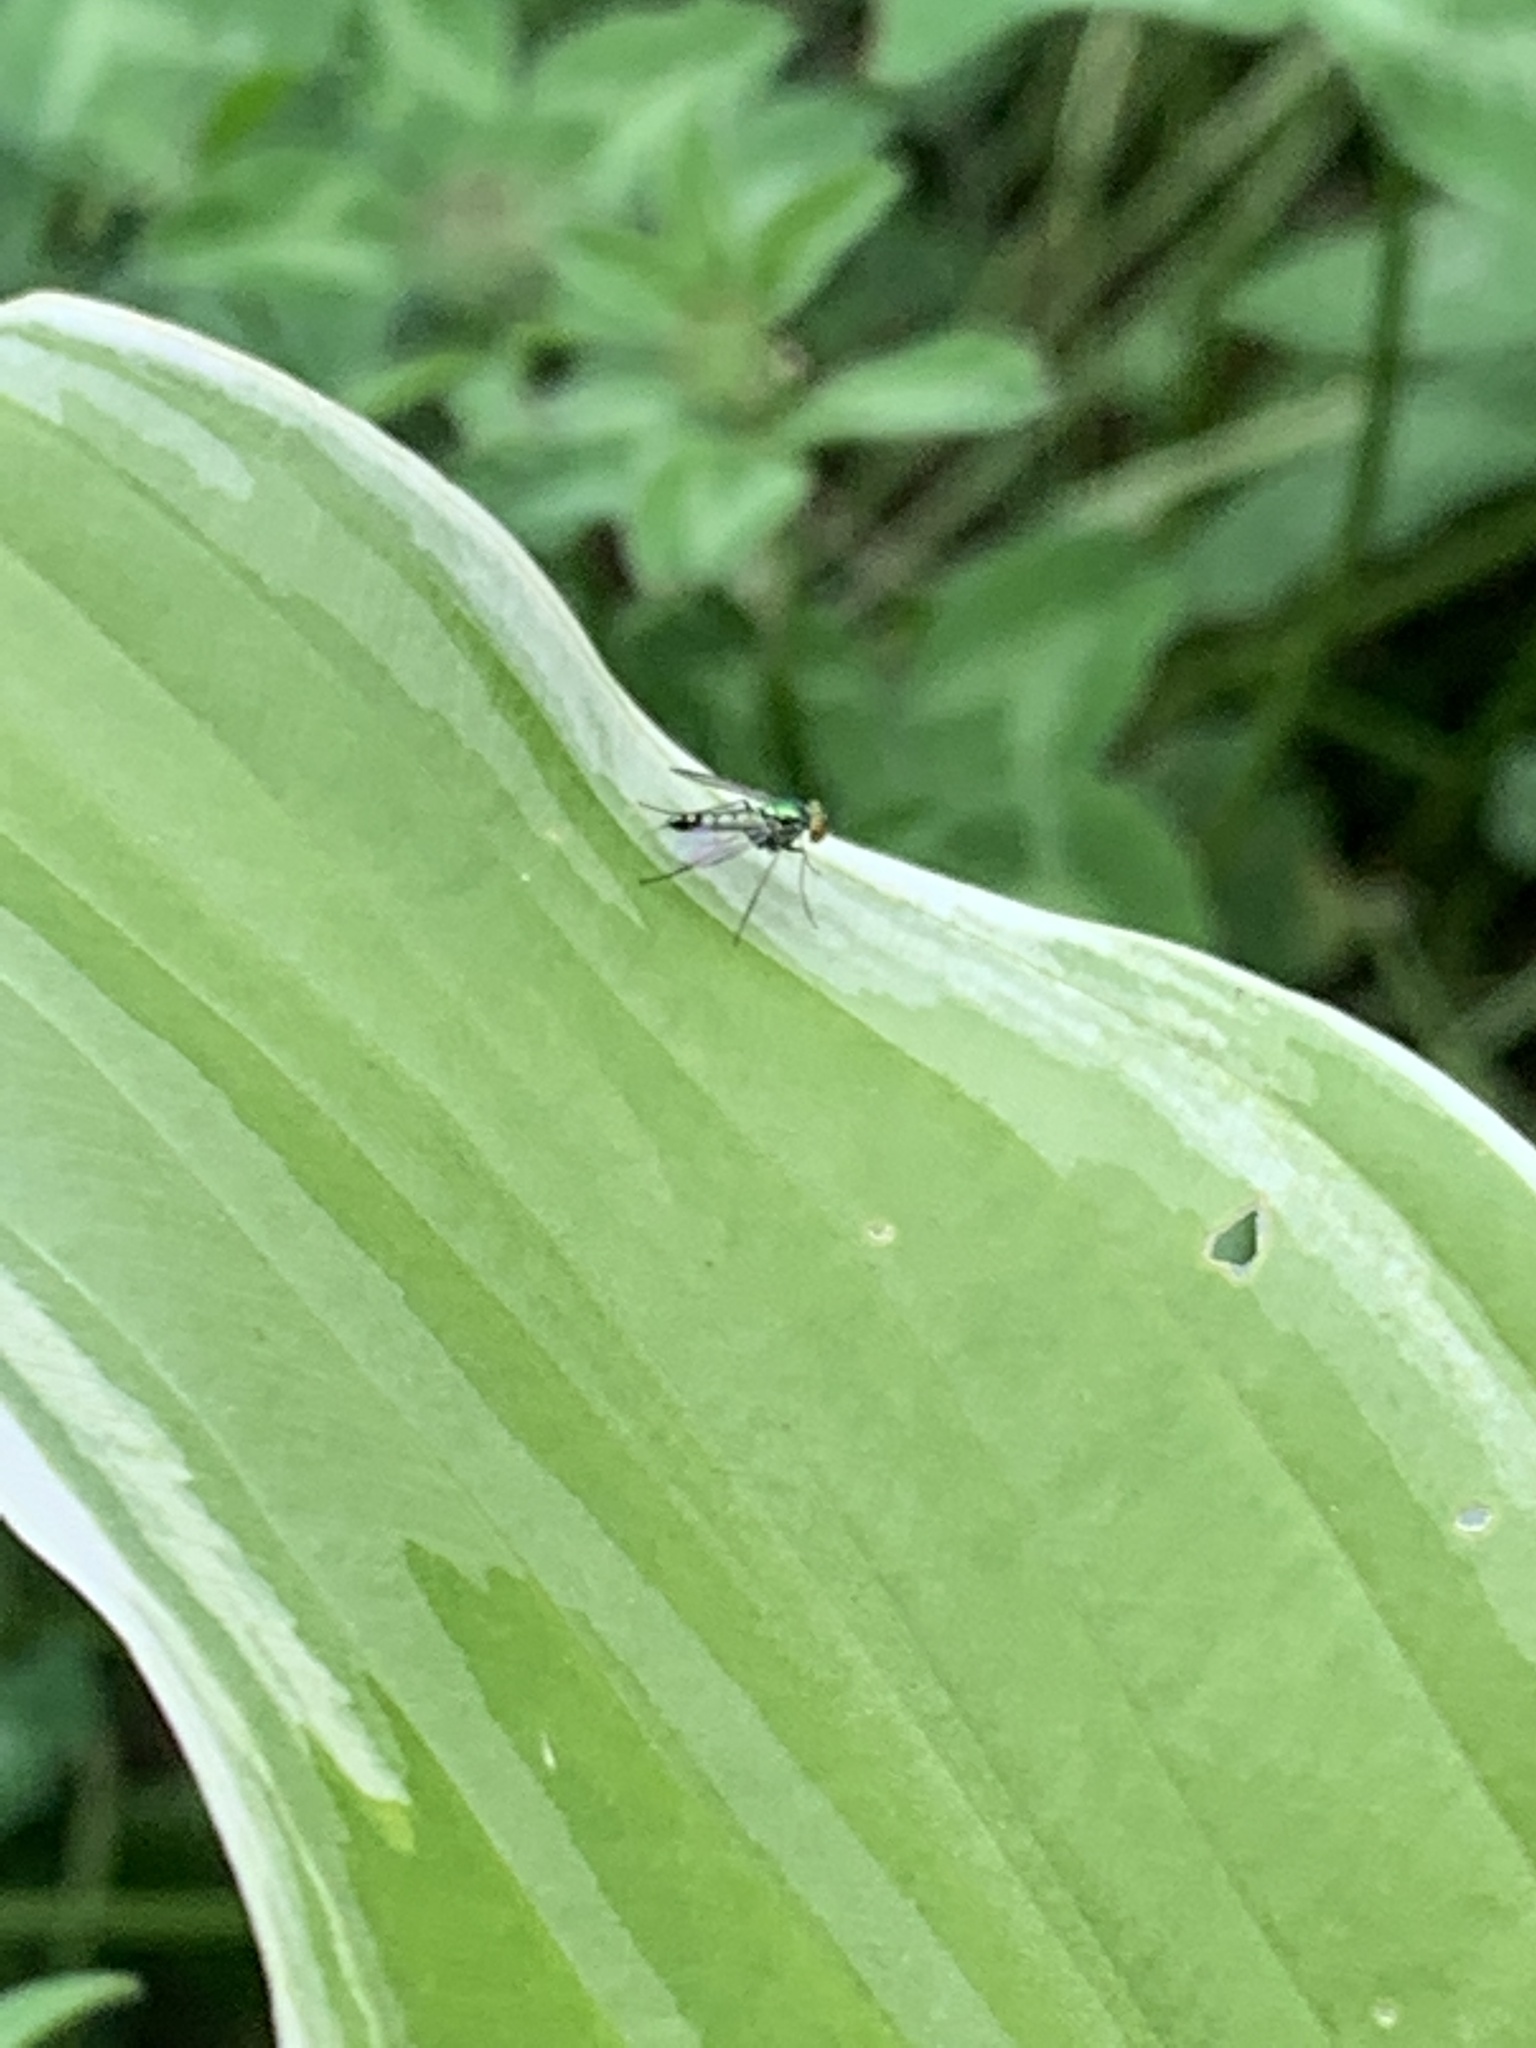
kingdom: Animalia
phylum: Arthropoda
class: Insecta
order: Diptera
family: Dolichopodidae
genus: Condylostylus
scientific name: Condylostylus
